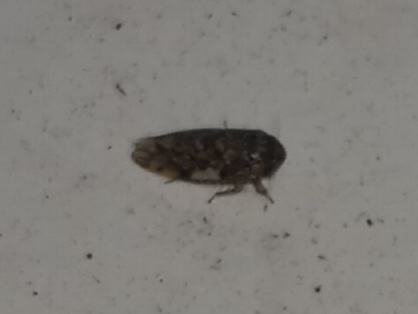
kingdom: Animalia
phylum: Arthropoda
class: Insecta
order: Hemiptera
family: Cicadellidae
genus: Xestocephalus
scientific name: Xestocephalus tessellatus
